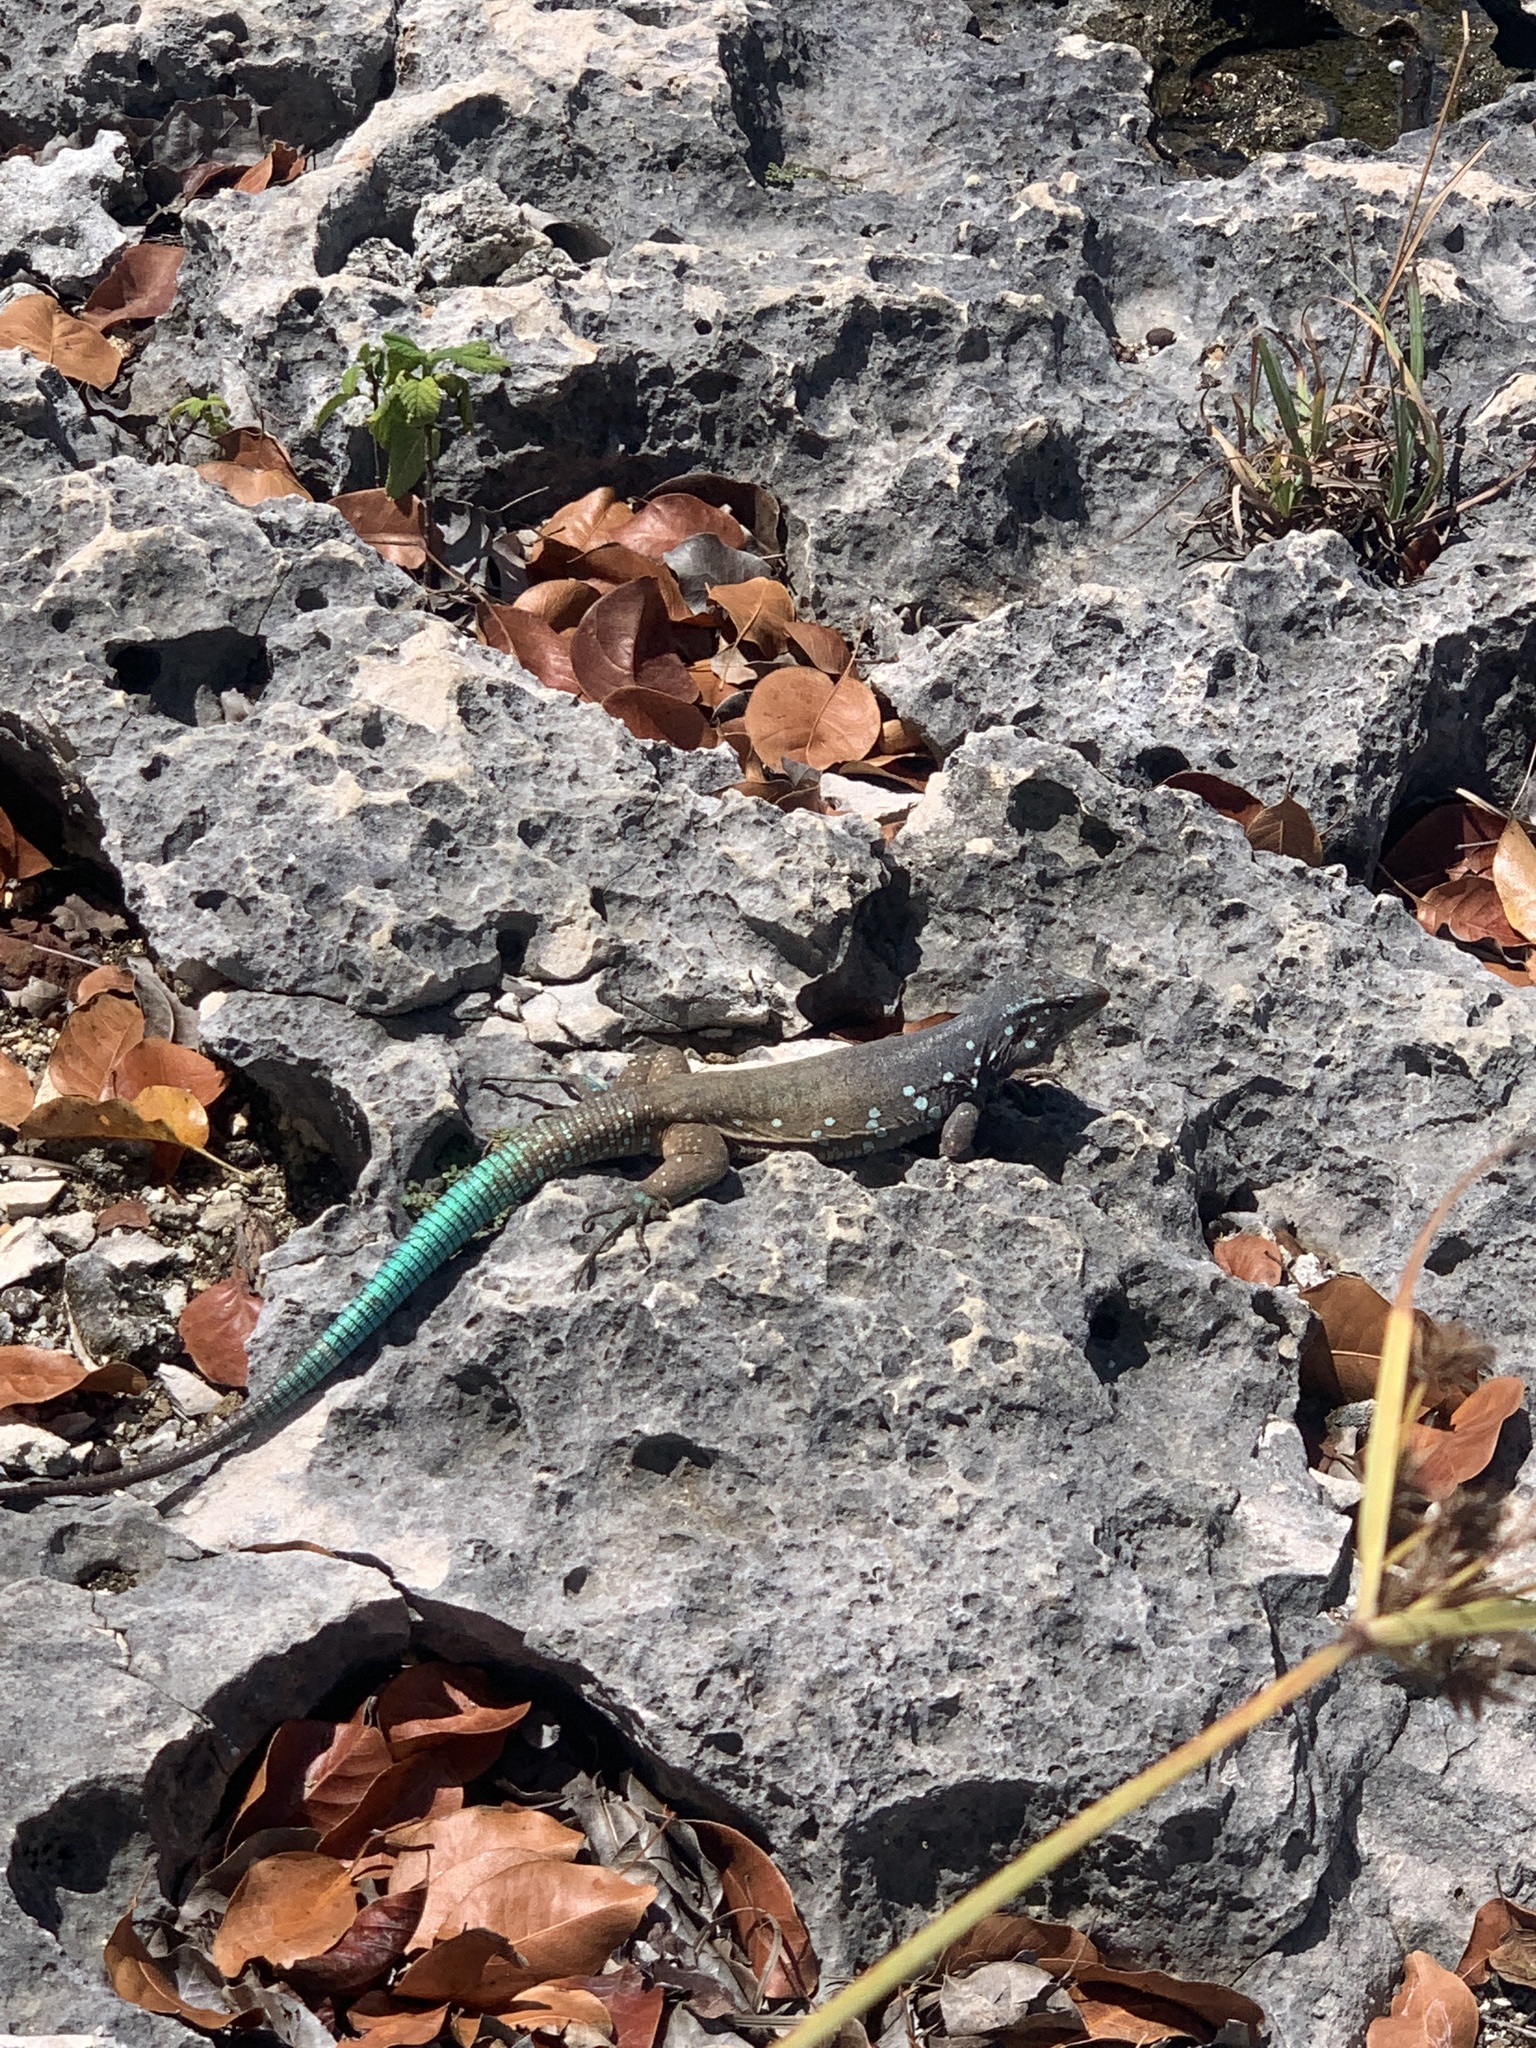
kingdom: Animalia
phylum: Chordata
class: Squamata
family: Teiidae
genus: Cnemidophorus
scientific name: Cnemidophorus ruthveni
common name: Bonaire whiptail
